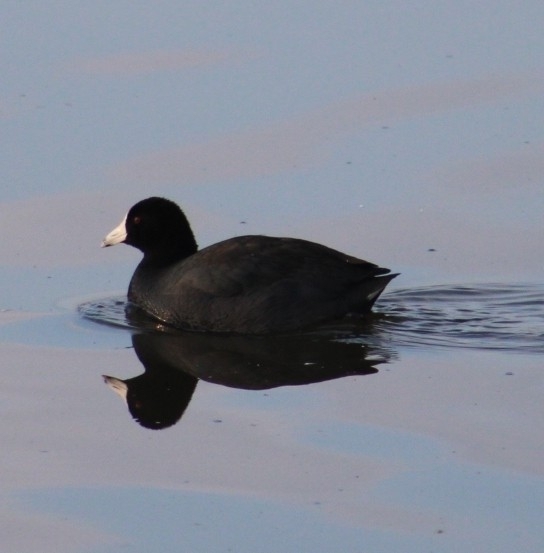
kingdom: Animalia
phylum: Chordata
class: Aves
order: Gruiformes
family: Rallidae
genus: Fulica
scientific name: Fulica americana
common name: American coot
